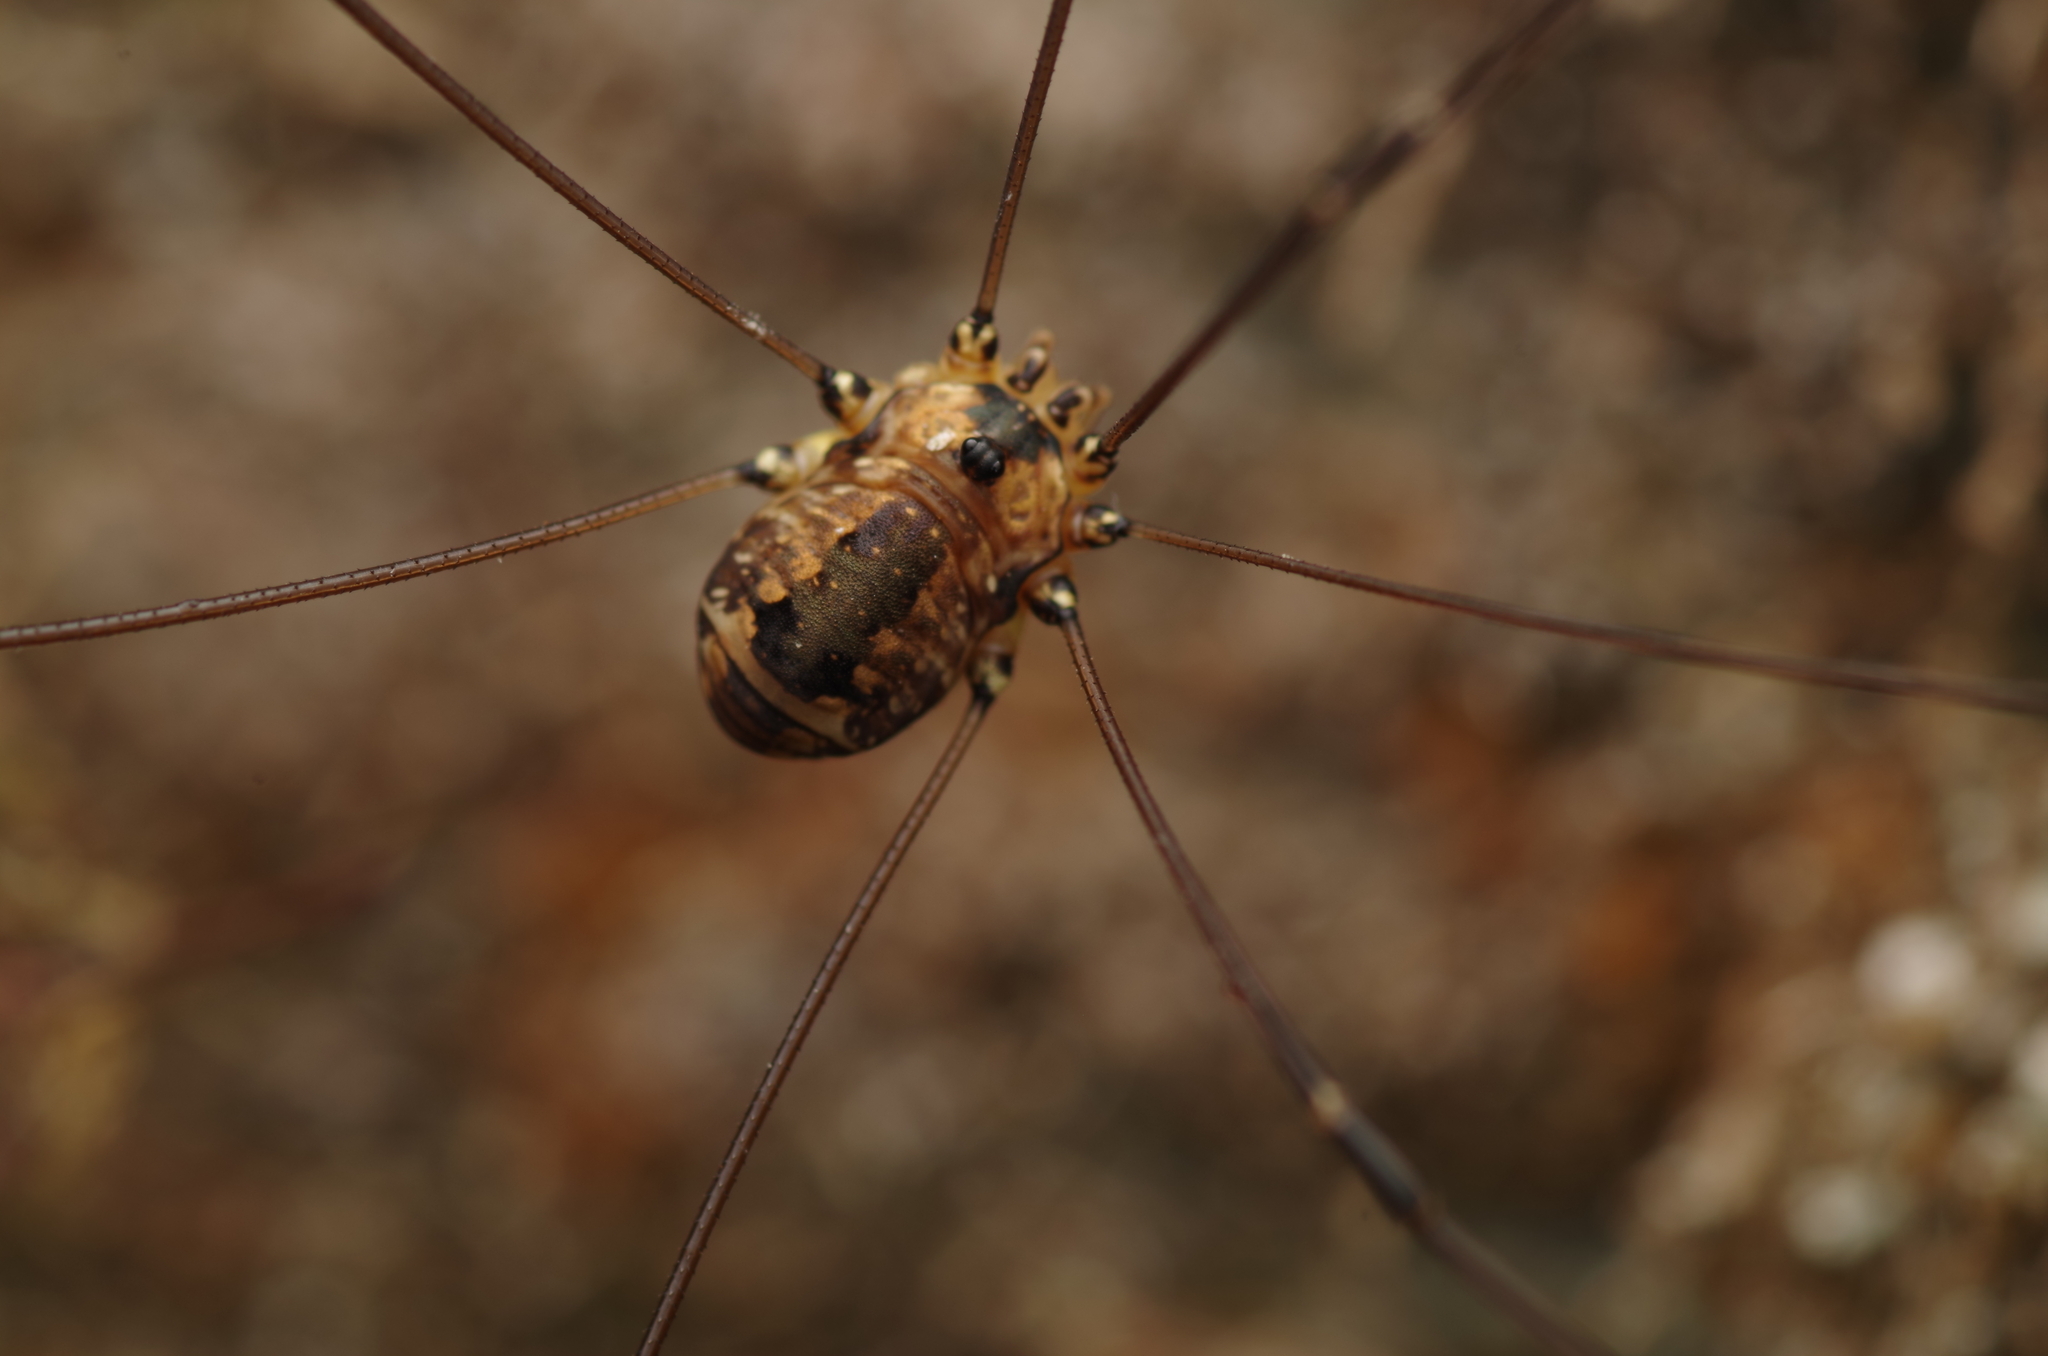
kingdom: Animalia
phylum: Arthropoda
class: Arachnida
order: Opiliones
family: Sclerosomatidae
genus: Leiobunum
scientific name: Leiobunum rotundum
